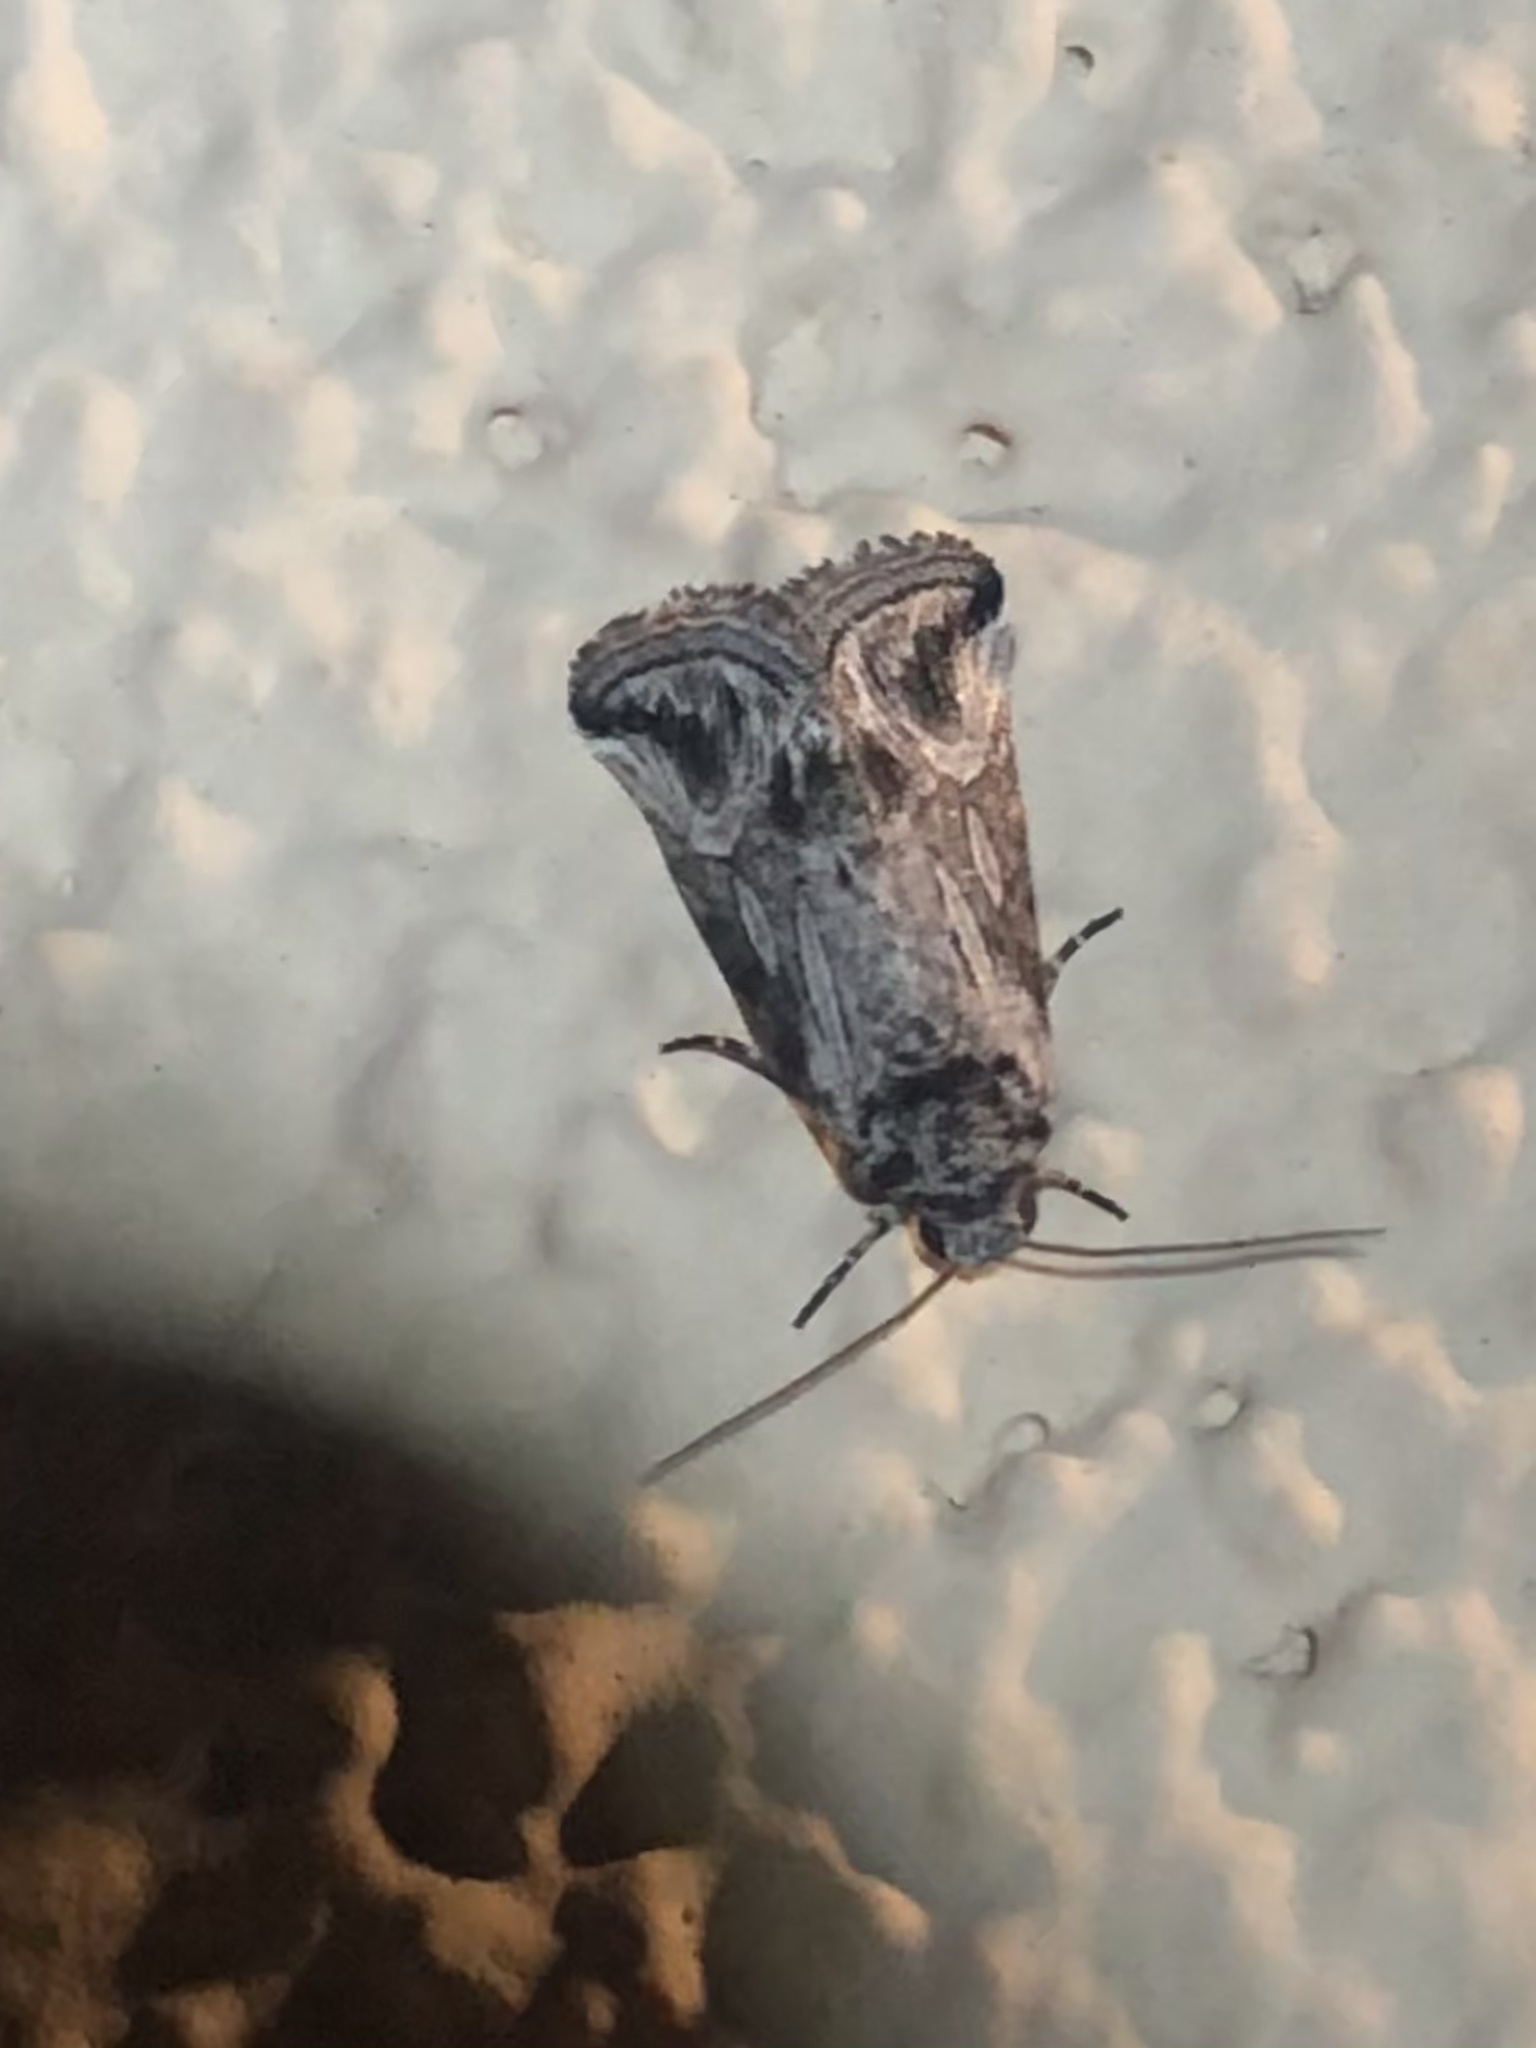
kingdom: Animalia
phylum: Arthropoda
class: Insecta
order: Lepidoptera
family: Noctuidae
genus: Sympistis
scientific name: Sympistis amun
